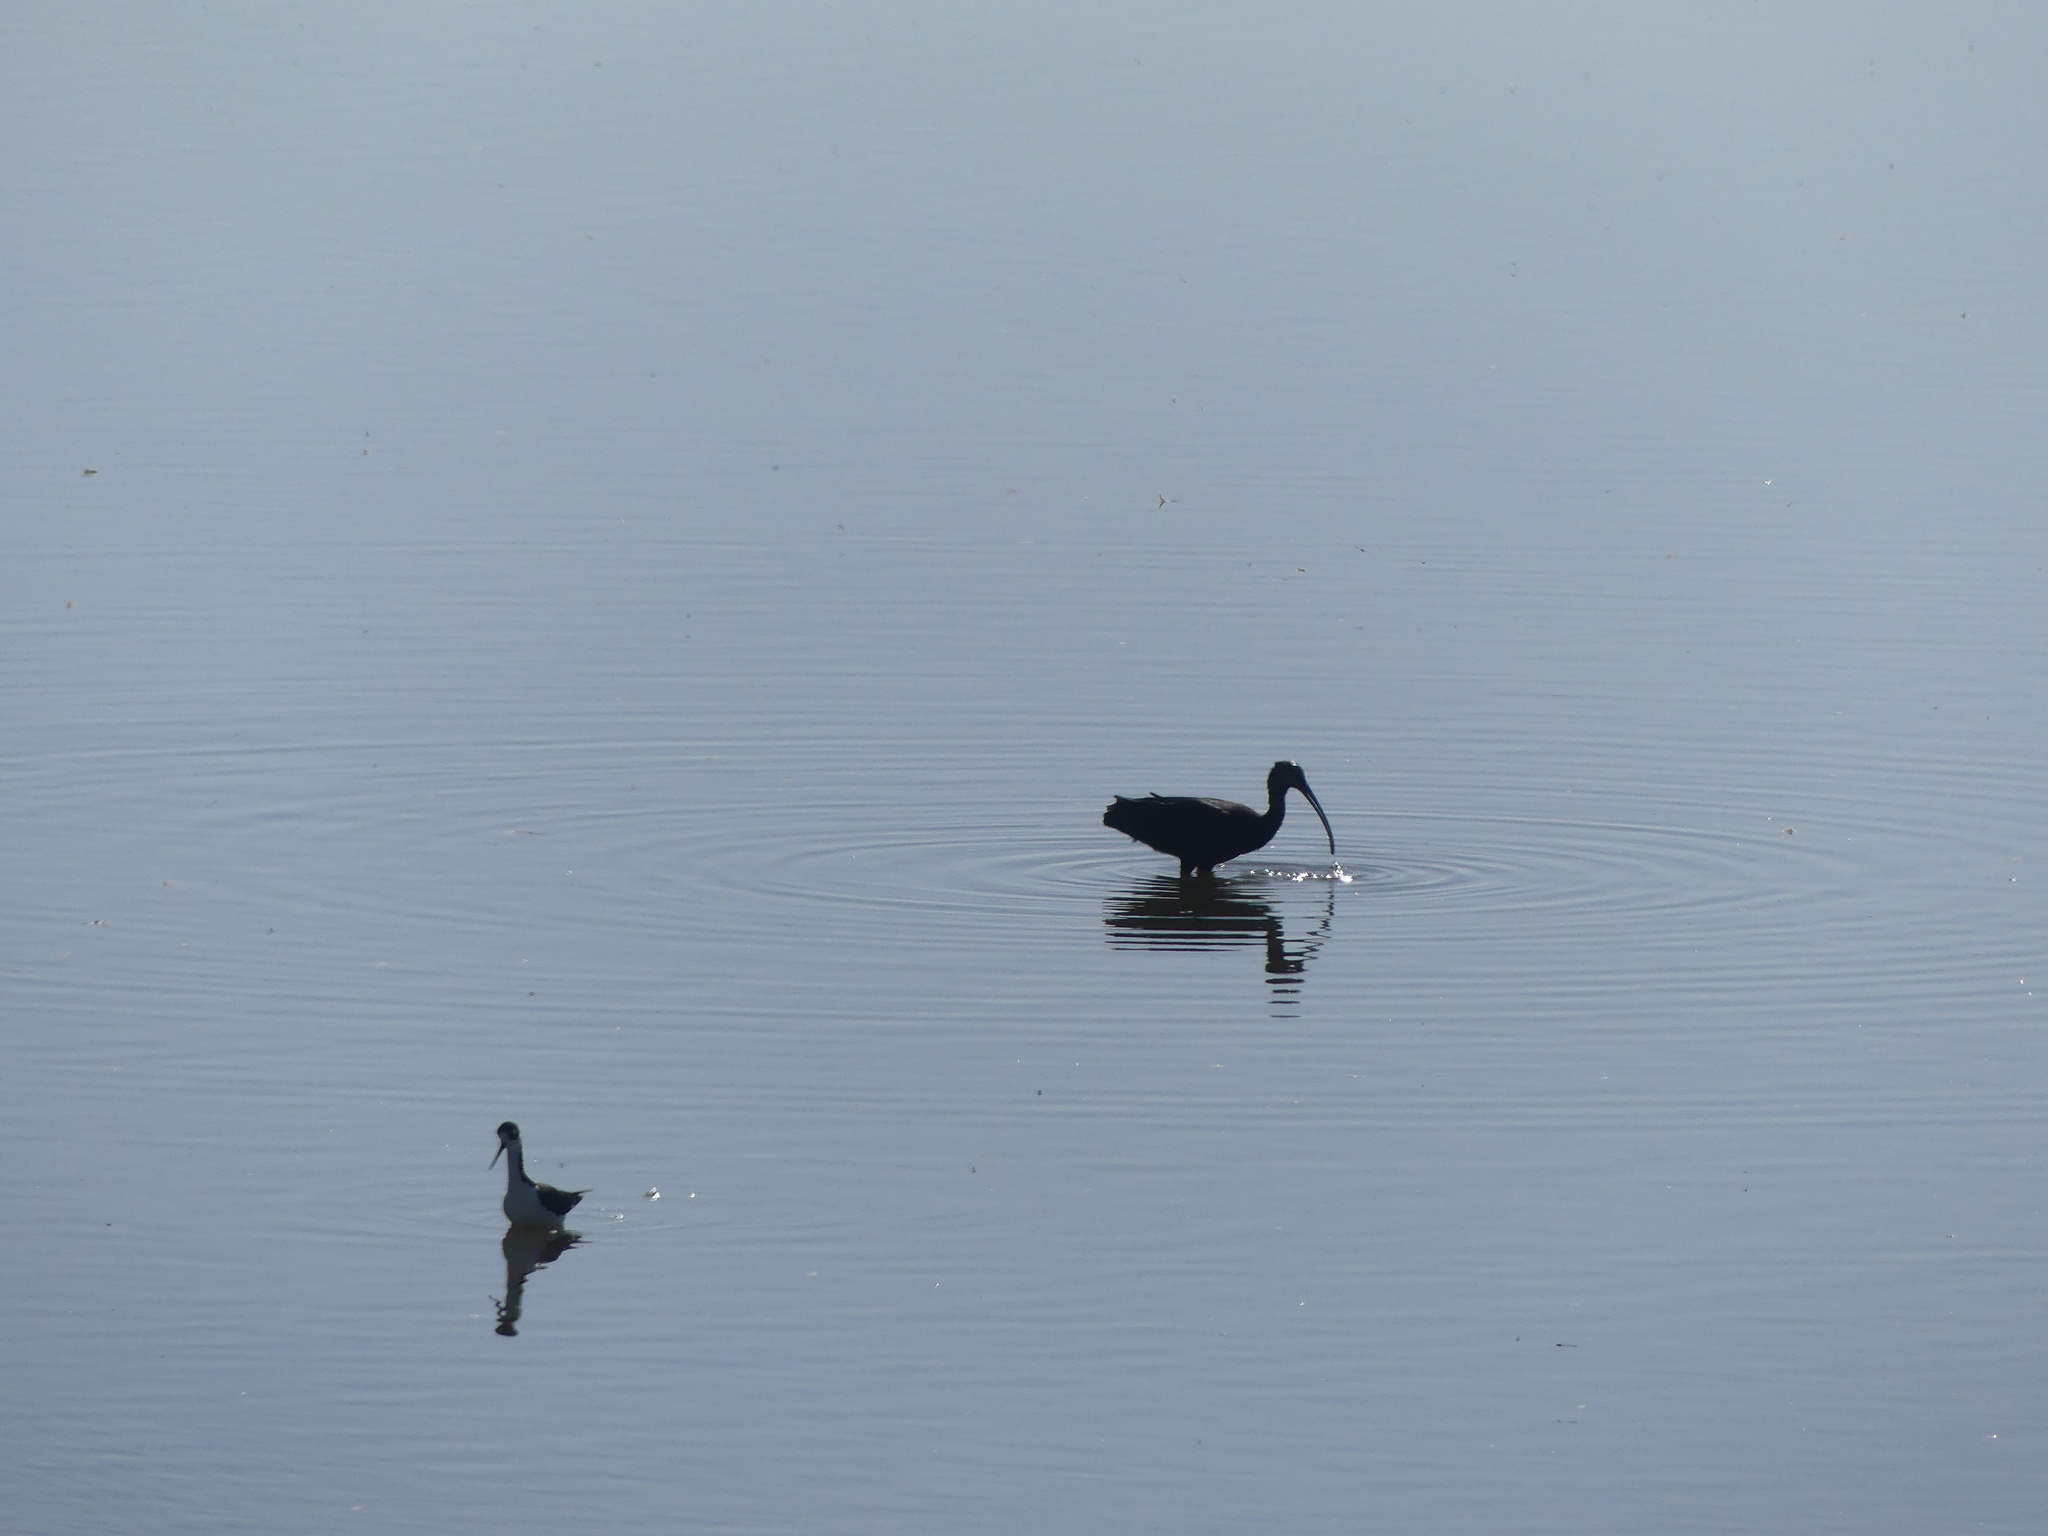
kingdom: Animalia
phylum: Chordata
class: Aves
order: Pelecaniformes
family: Threskiornithidae
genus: Plegadis
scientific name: Plegadis chihi
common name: White-faced ibis
